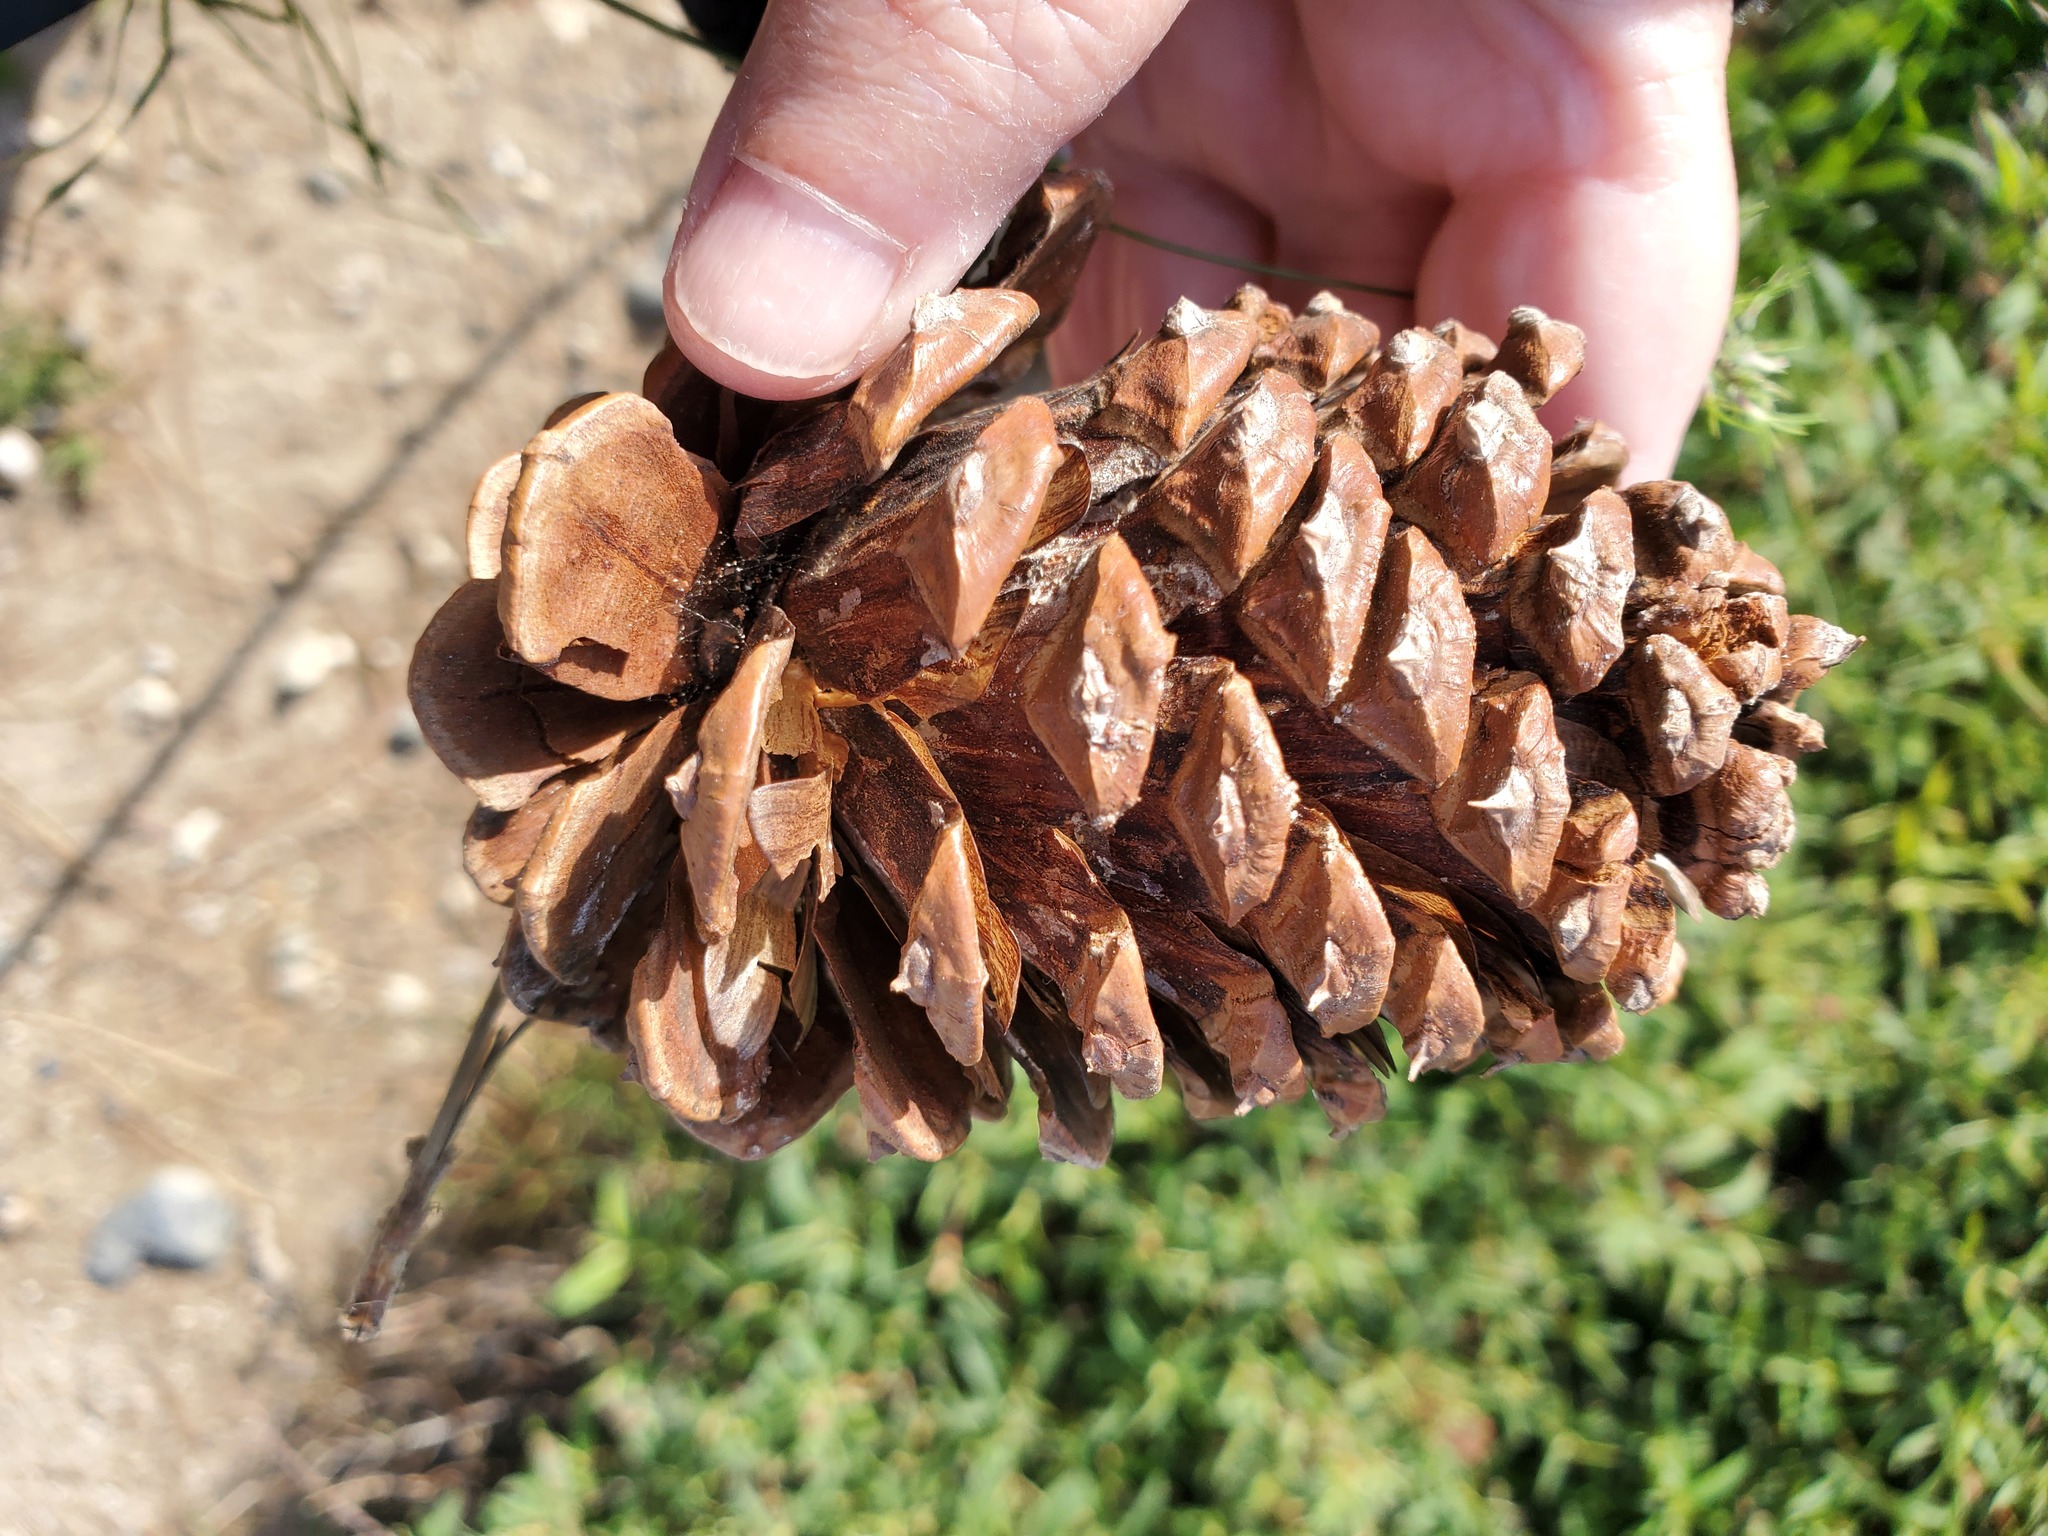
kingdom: Plantae
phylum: Tracheophyta
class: Pinopsida
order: Pinales
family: Pinaceae
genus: Pinus
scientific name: Pinus ponderosa
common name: Western yellow-pine
